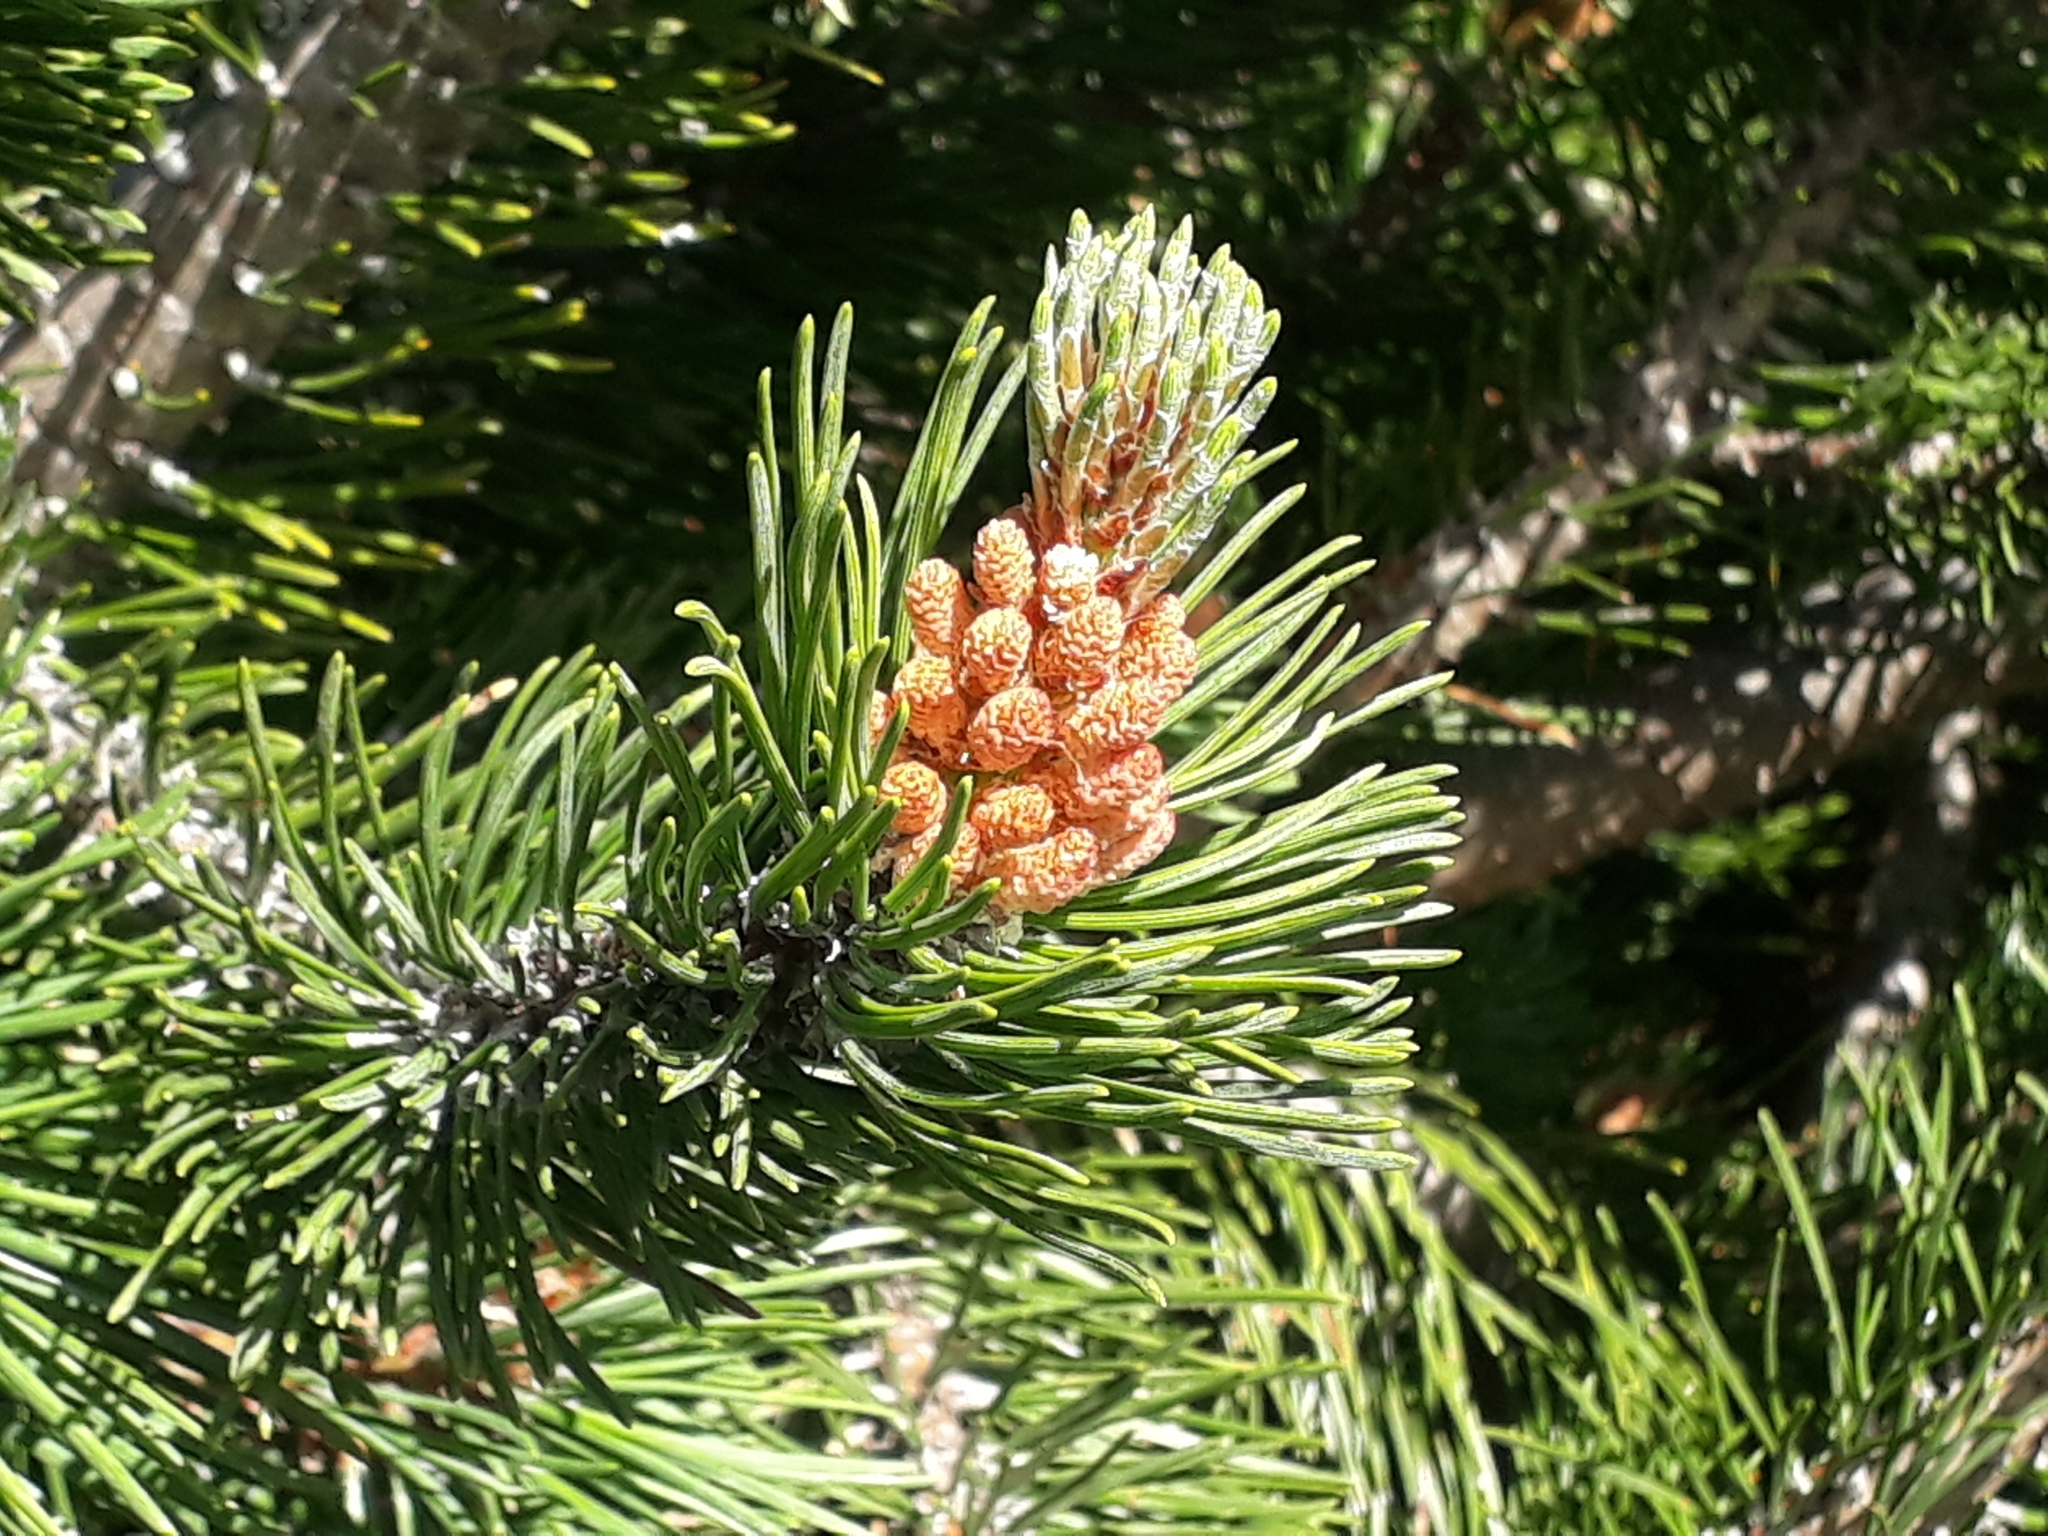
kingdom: Plantae
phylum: Tracheophyta
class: Pinopsida
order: Pinales
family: Pinaceae
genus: Pinus
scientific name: Pinus mugo
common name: Mugo pine
